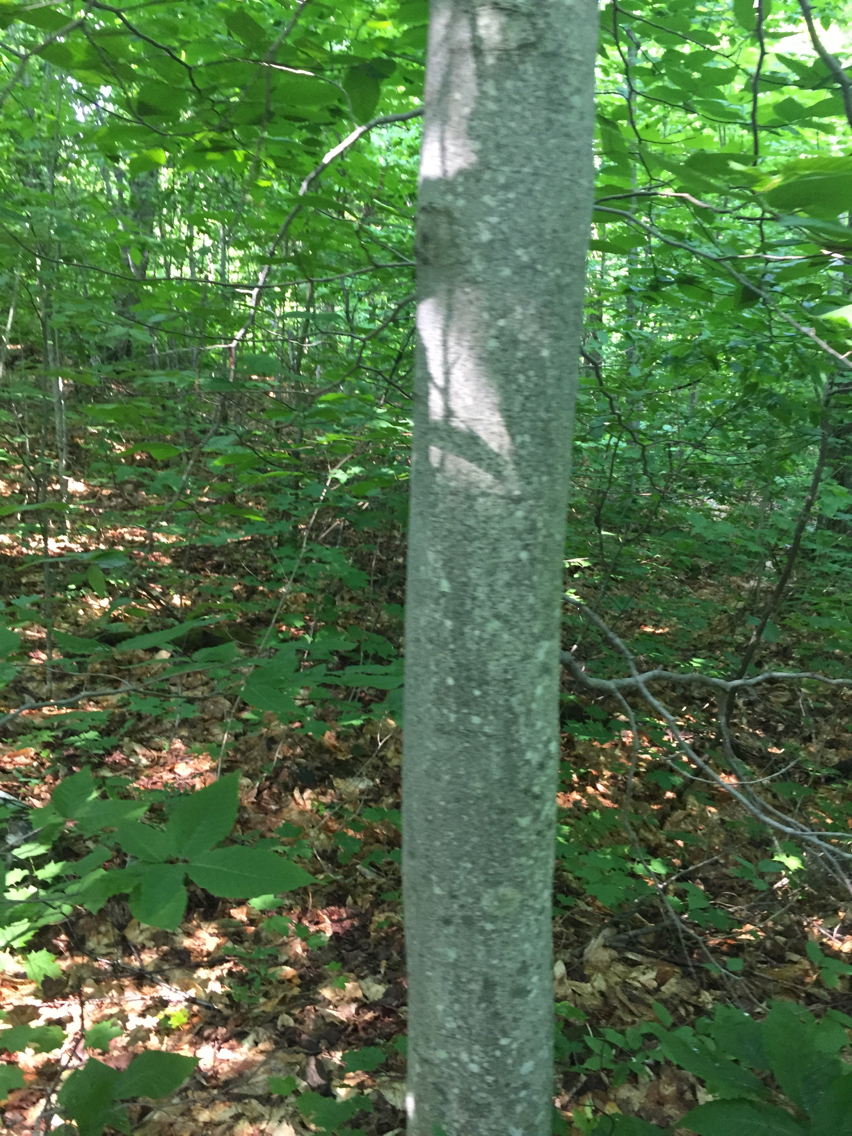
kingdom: Plantae
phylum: Tracheophyta
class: Magnoliopsida
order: Fagales
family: Fagaceae
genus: Fagus
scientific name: Fagus grandifolia
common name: American beech
